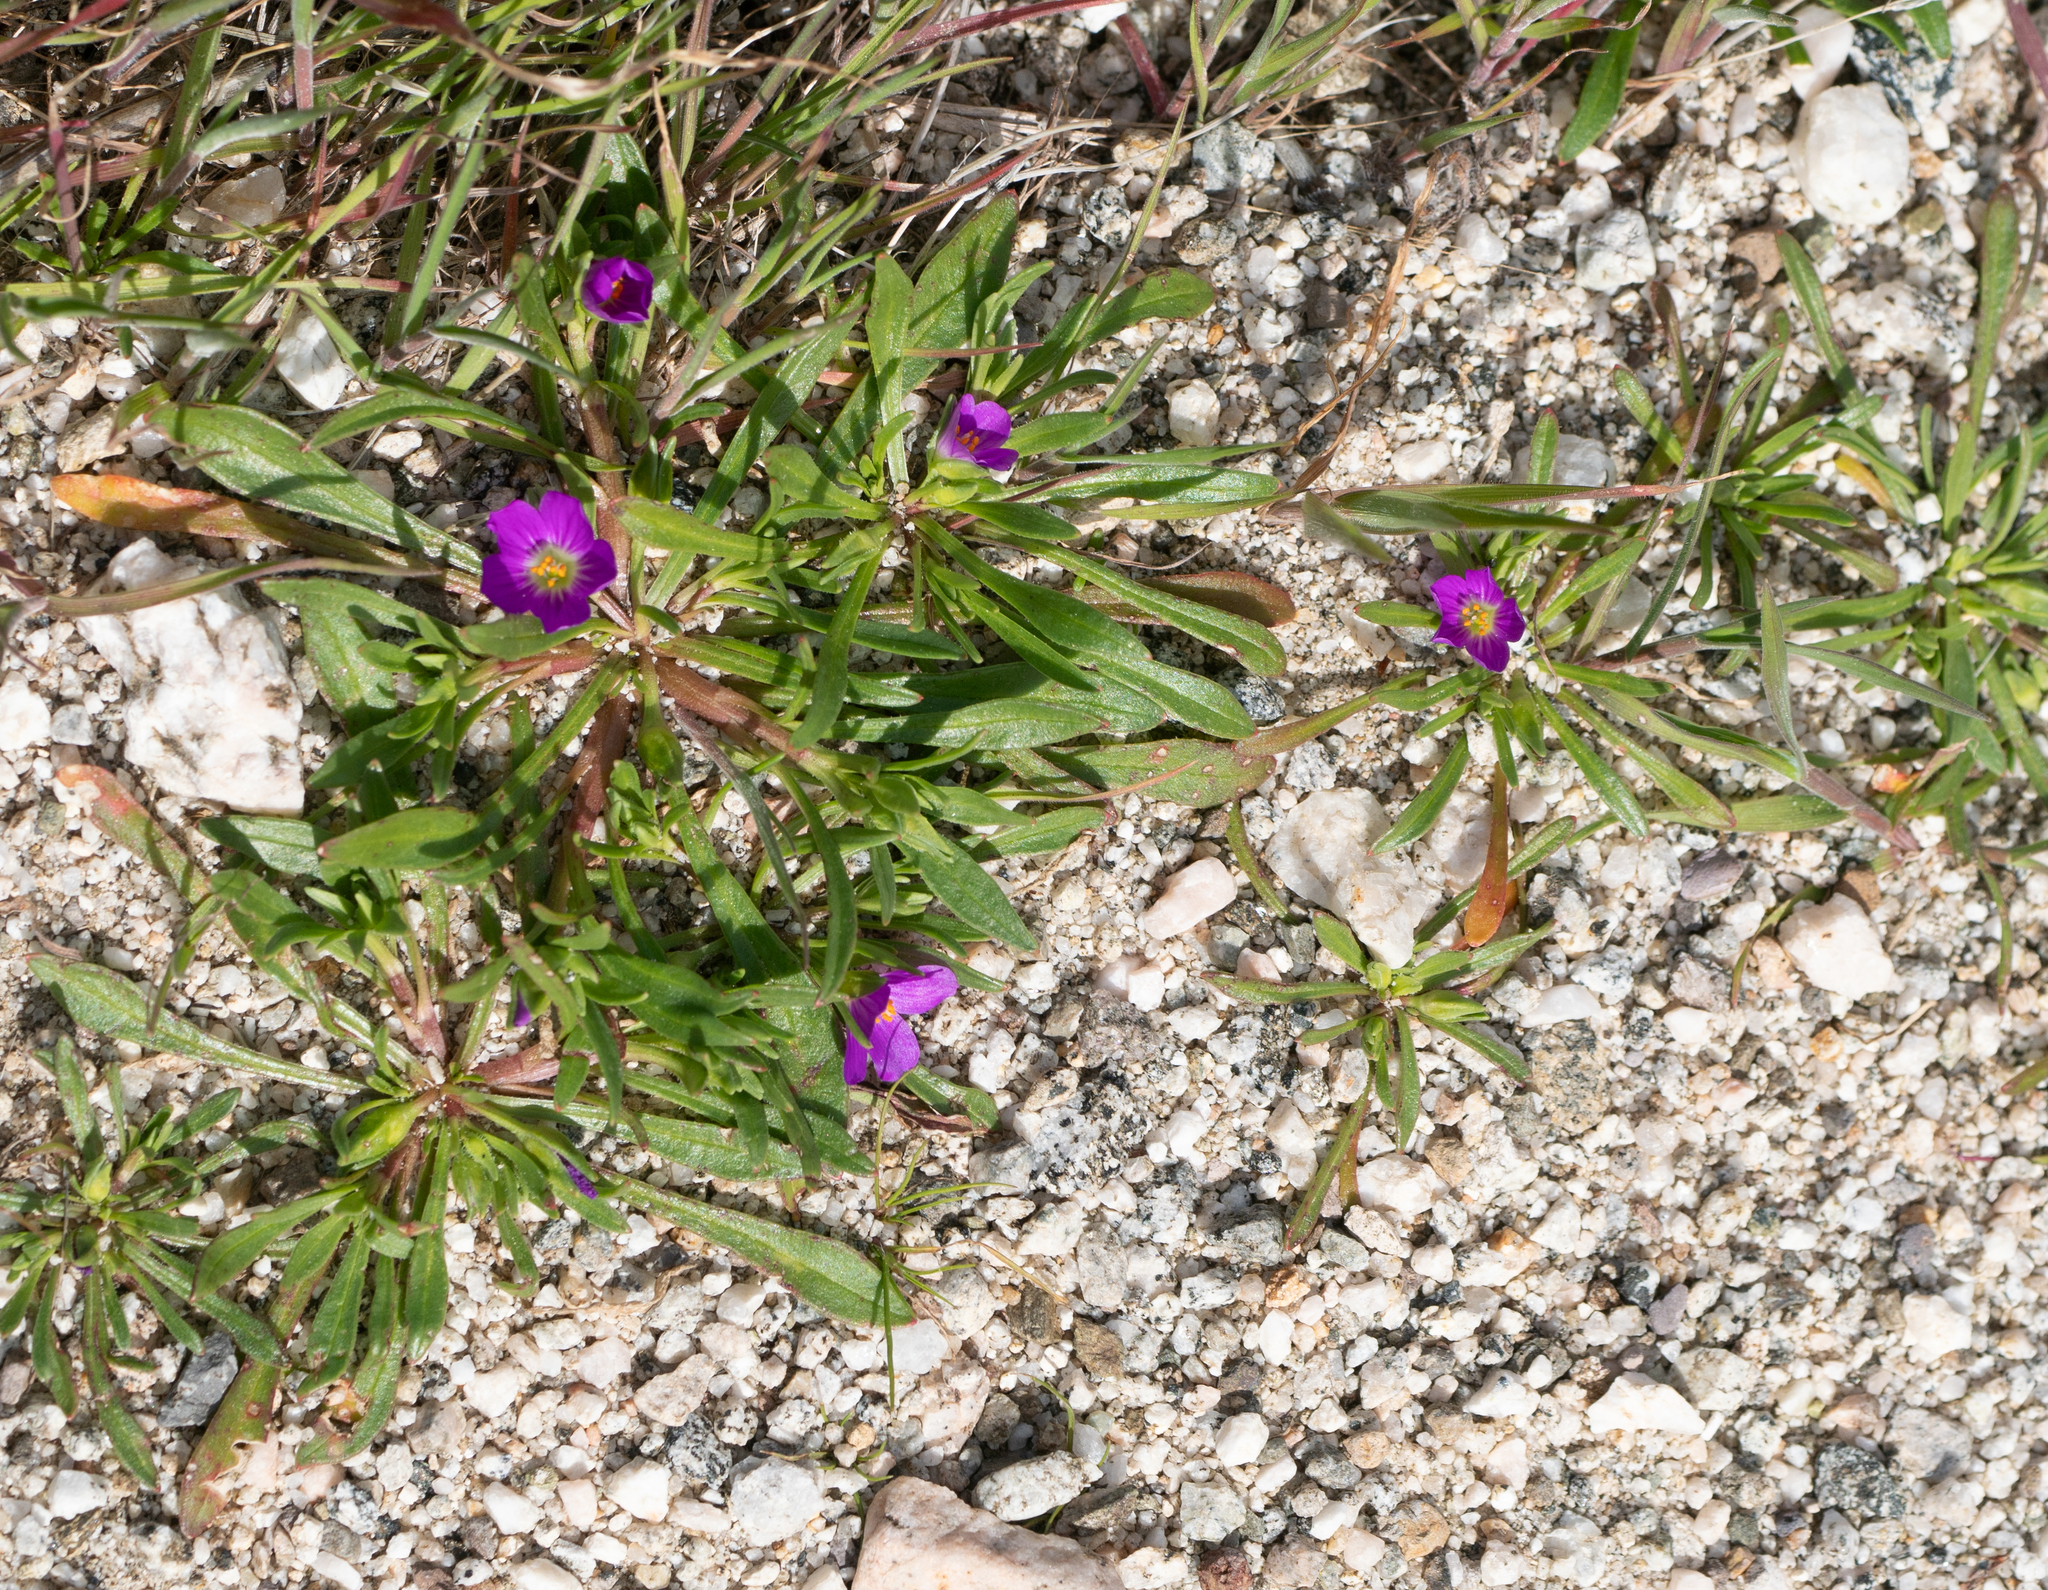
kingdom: Plantae
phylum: Tracheophyta
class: Magnoliopsida
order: Caryophyllales
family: Montiaceae
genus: Calandrinia
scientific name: Calandrinia menziesii
